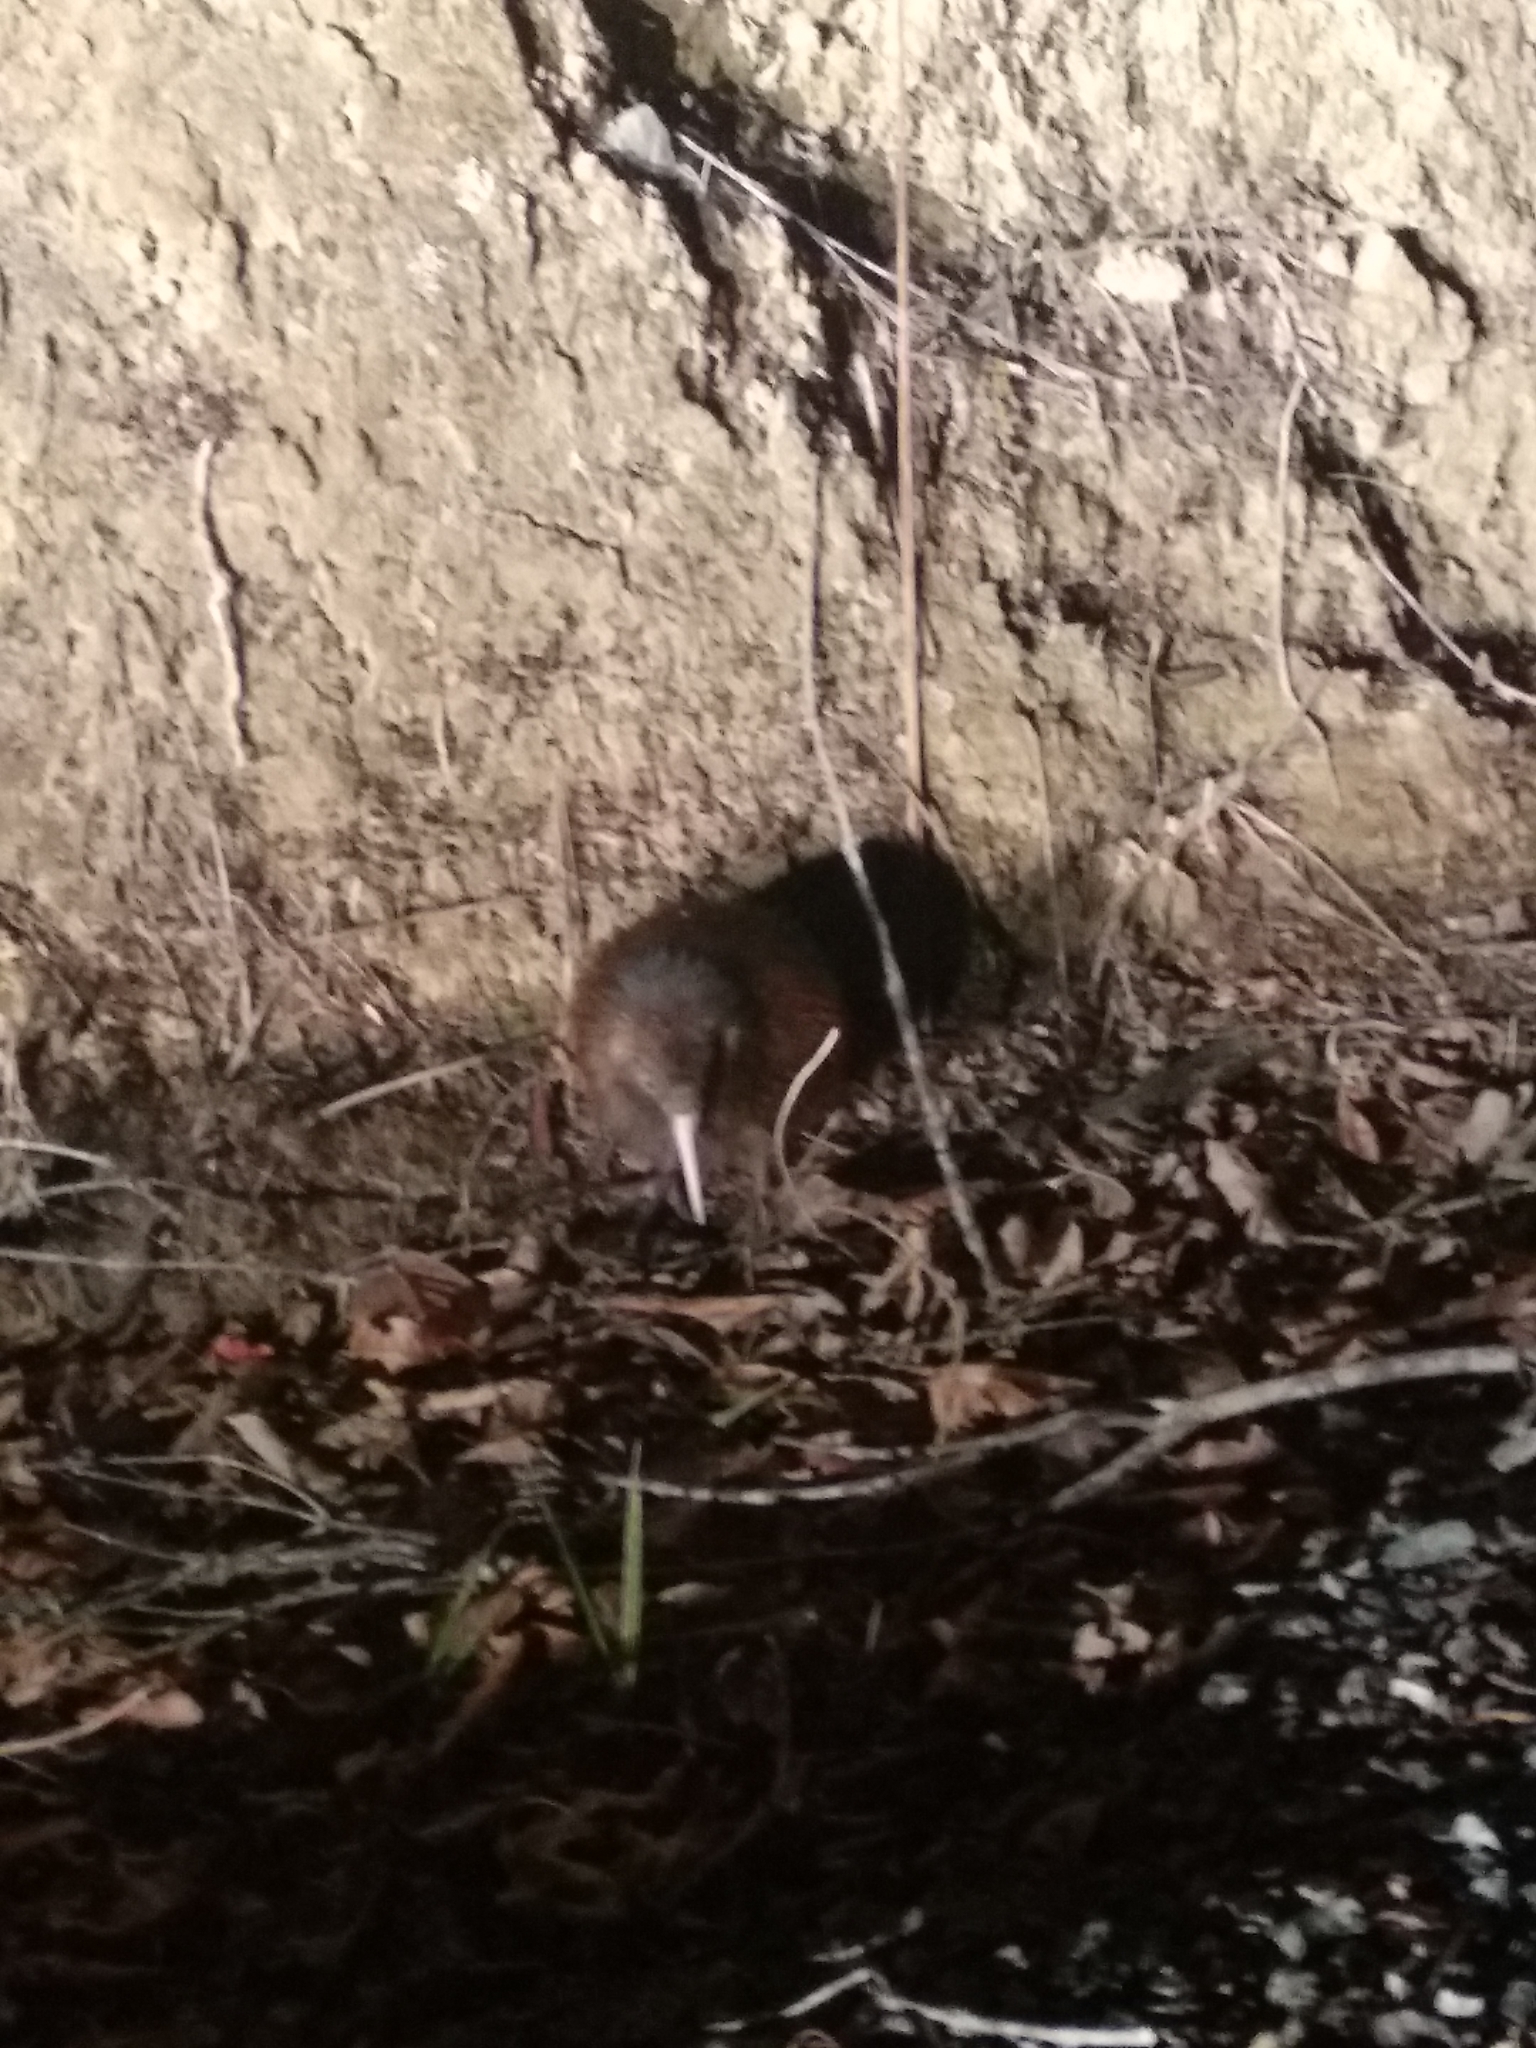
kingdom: Animalia
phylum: Chordata
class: Aves
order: Apterygiformes
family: Apterygidae
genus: Apteryx
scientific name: Apteryx mantelli
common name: North island brown kiwi
